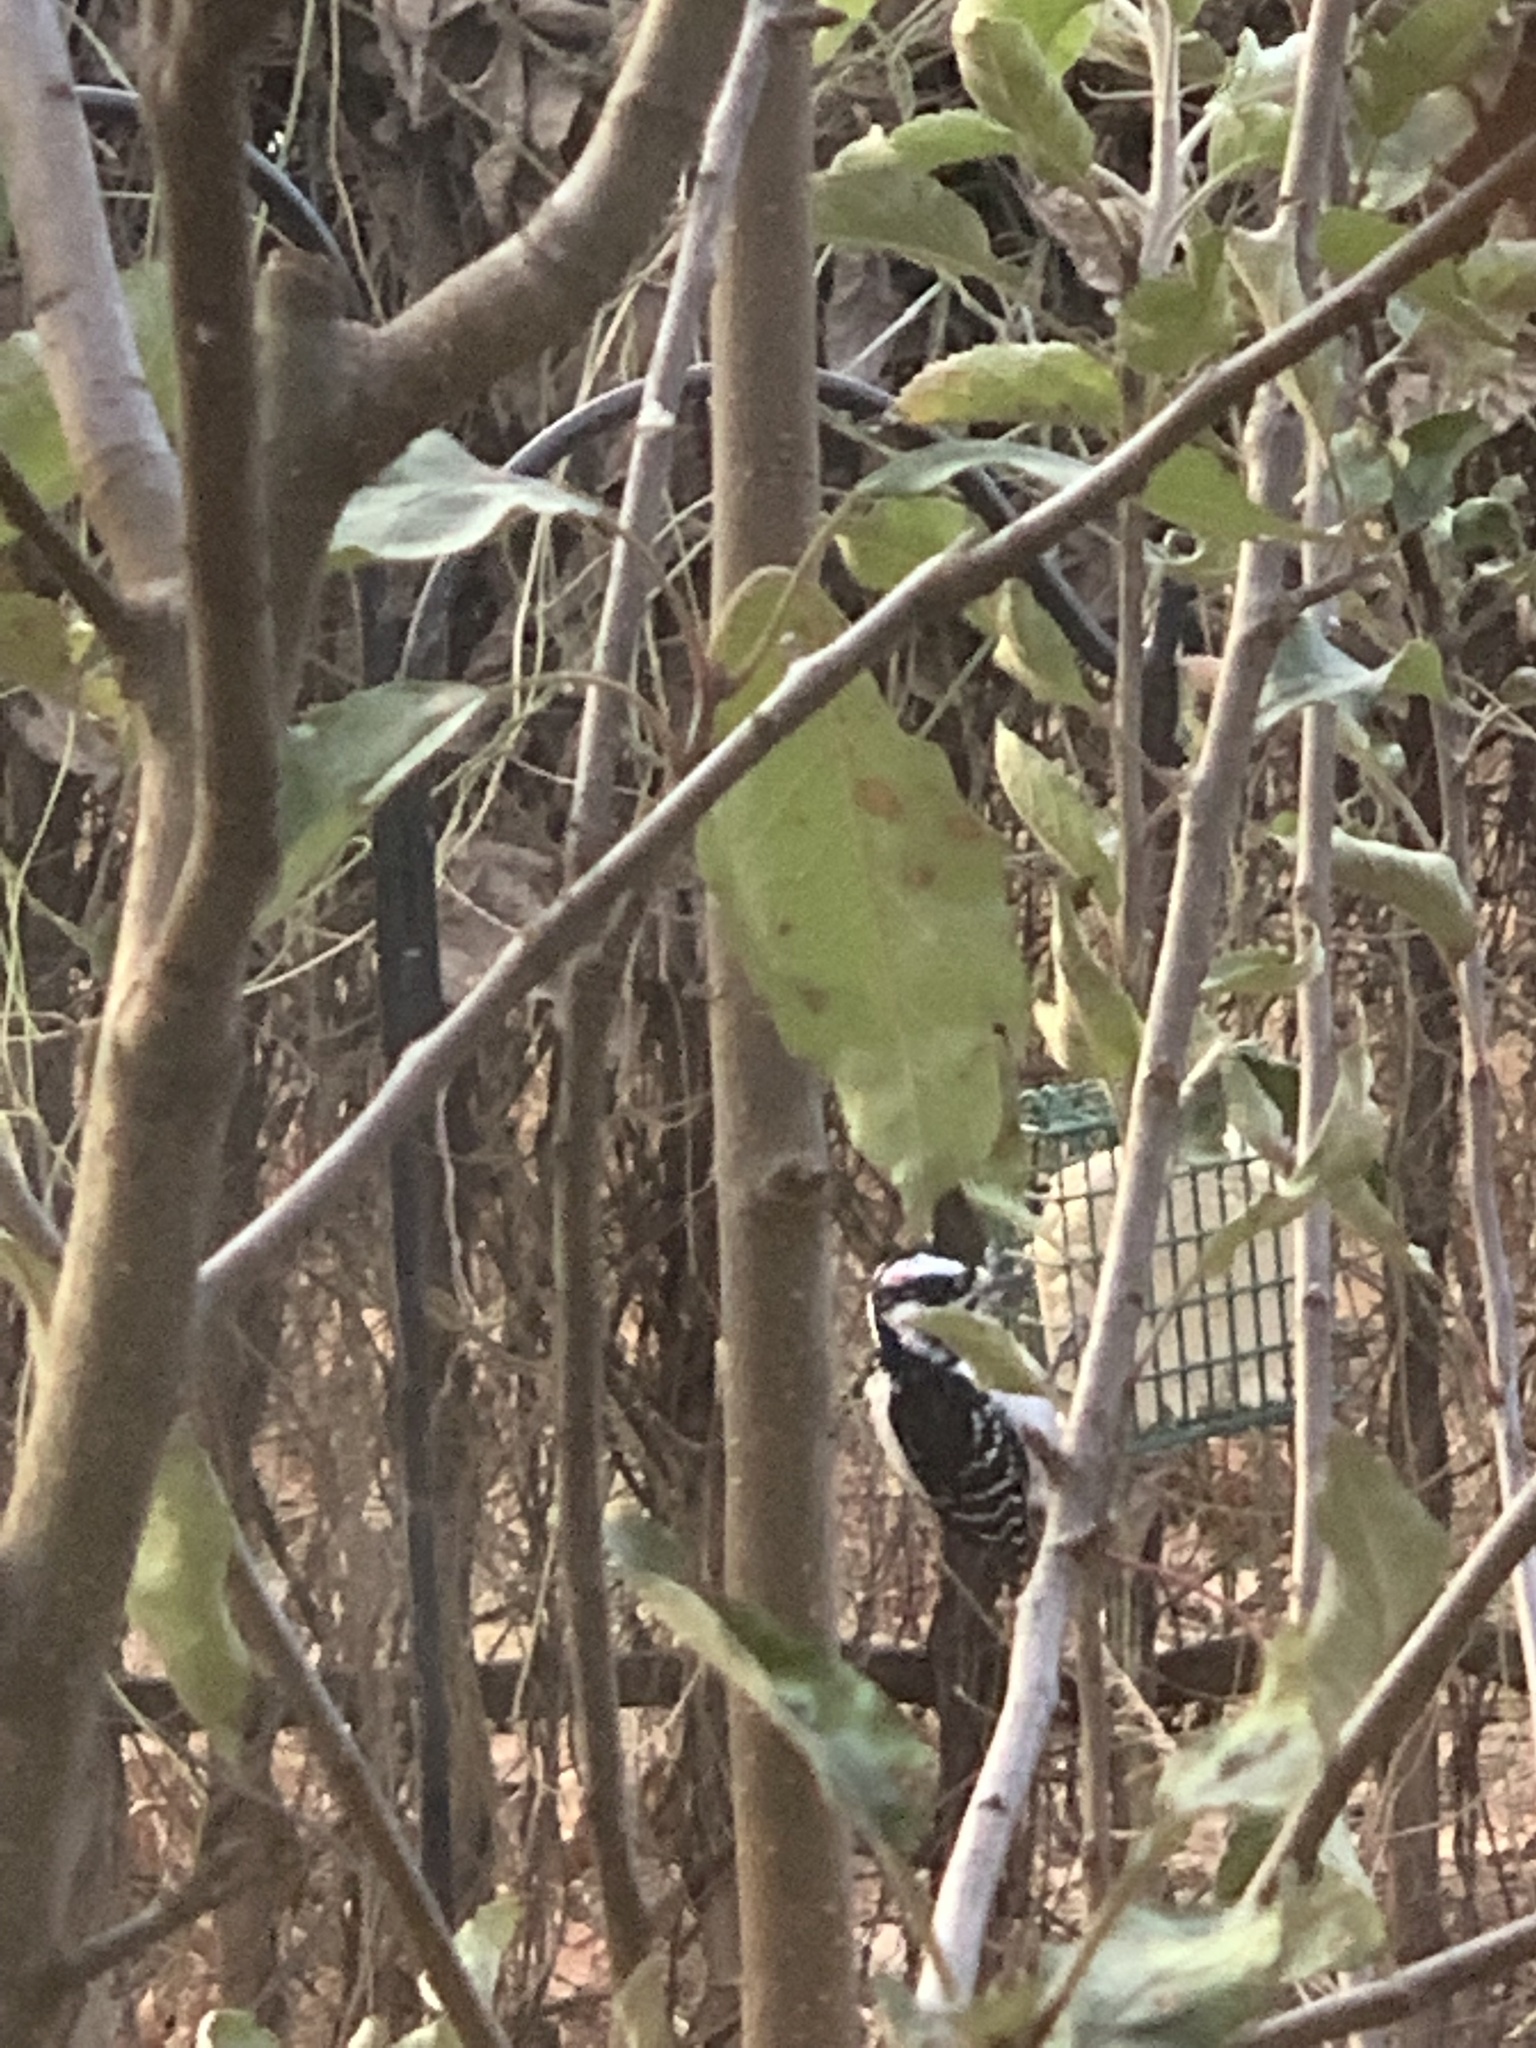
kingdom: Animalia
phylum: Chordata
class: Aves
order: Piciformes
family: Picidae
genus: Leuconotopicus
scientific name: Leuconotopicus villosus
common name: Hairy woodpecker
